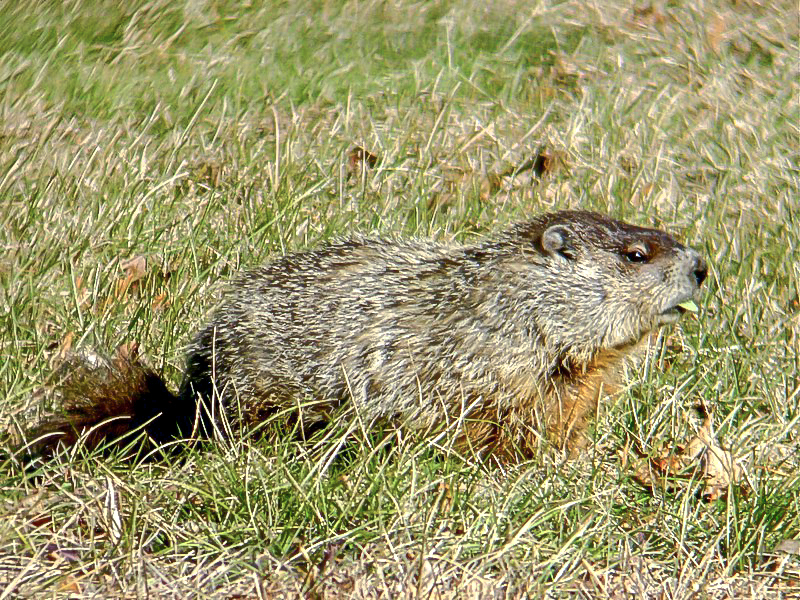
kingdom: Animalia
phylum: Chordata
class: Mammalia
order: Rodentia
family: Sciuridae
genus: Marmota
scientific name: Marmota monax
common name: Groundhog
